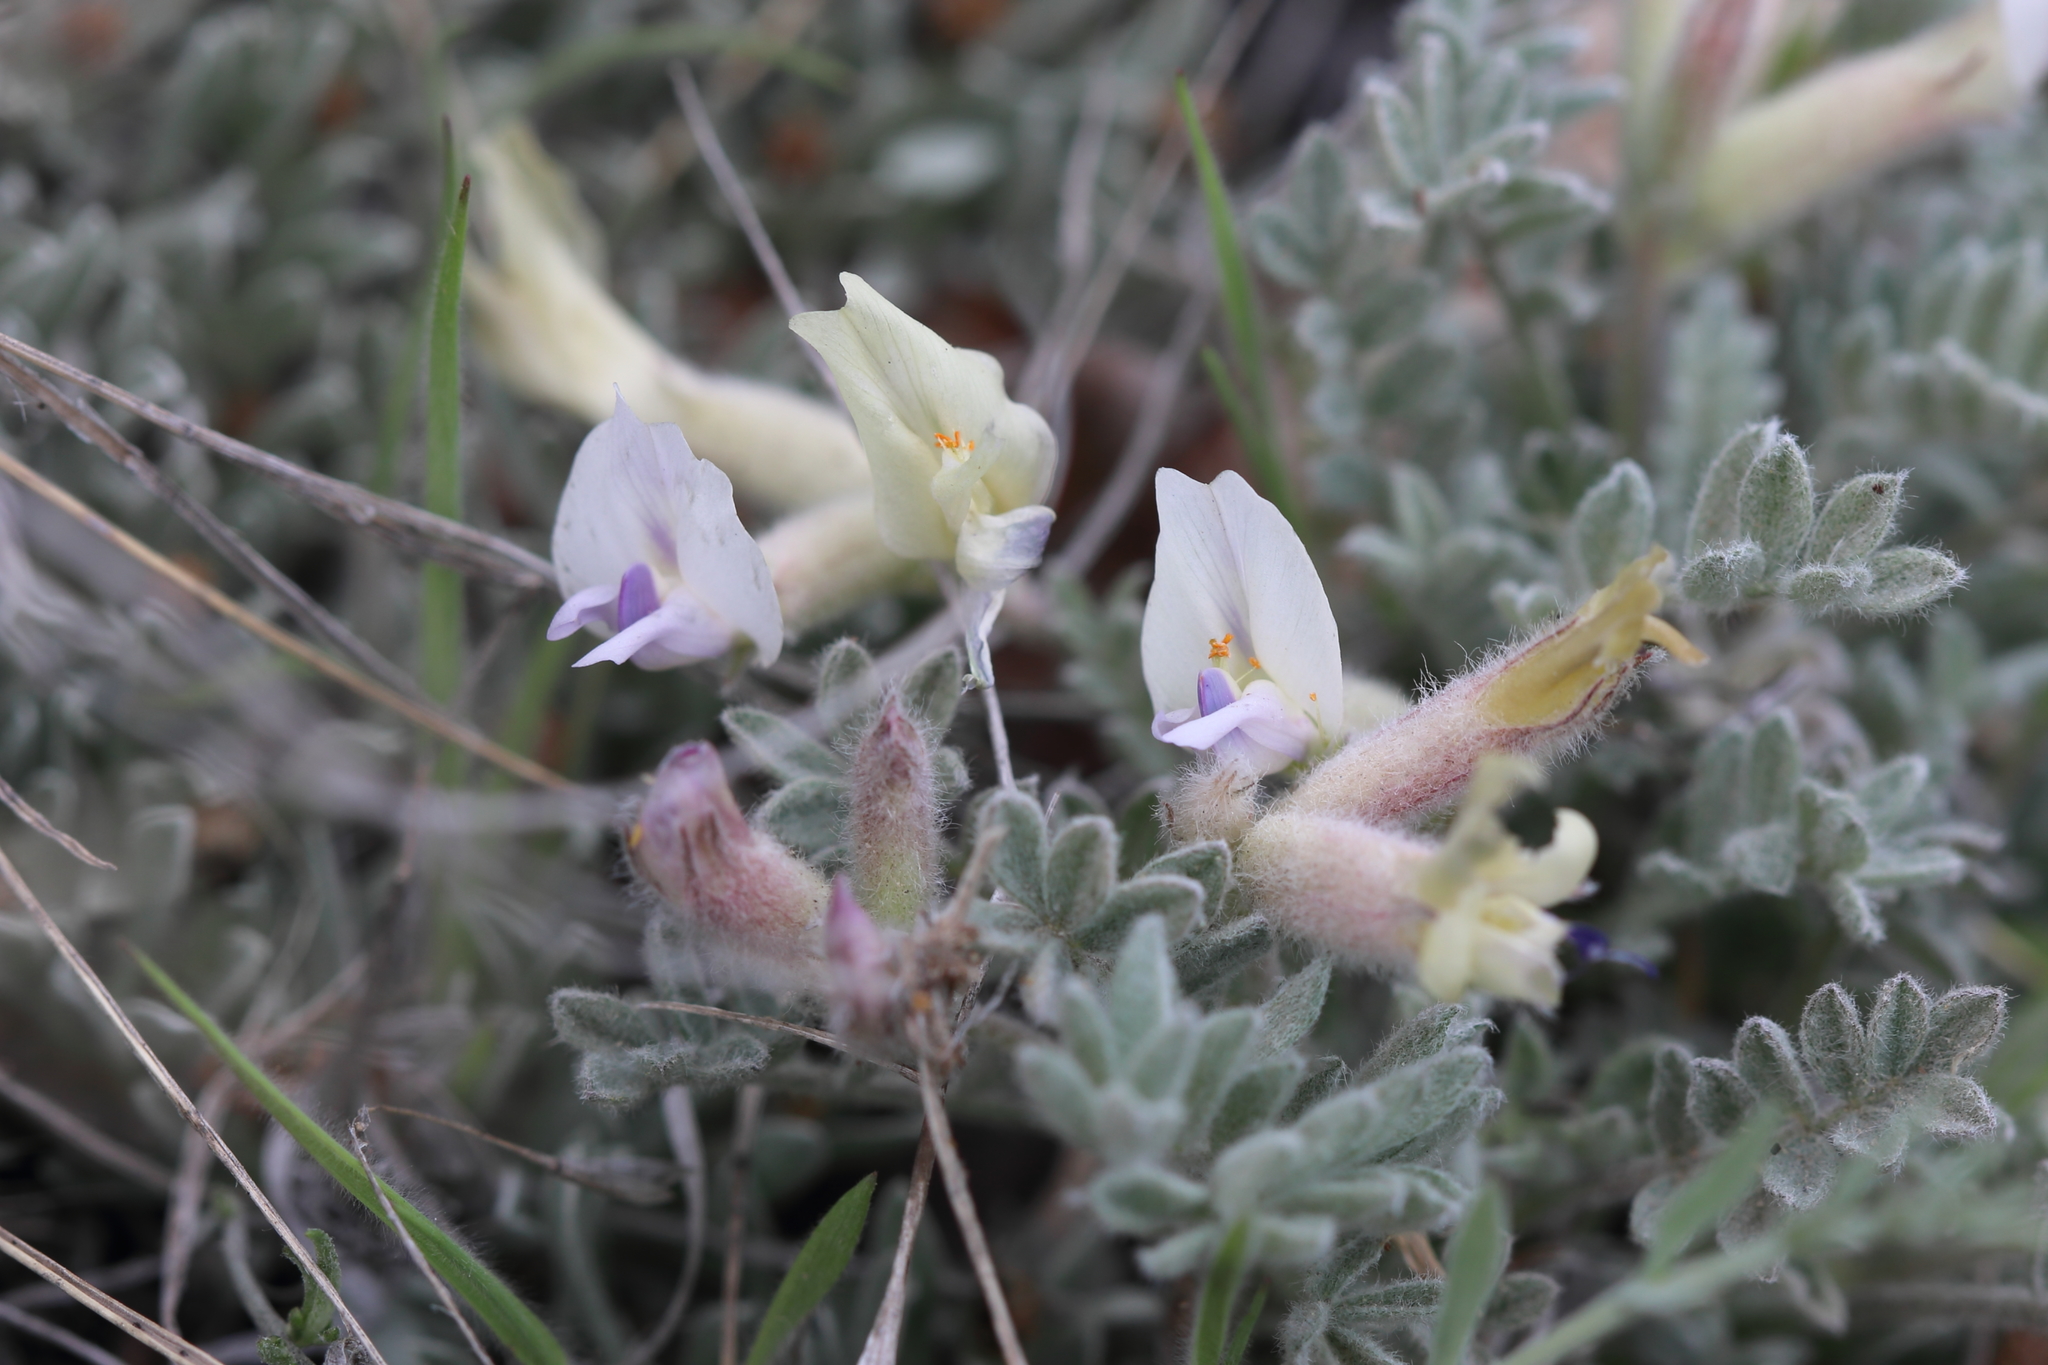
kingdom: Plantae
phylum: Tracheophyta
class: Magnoliopsida
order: Fabales
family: Fabaceae
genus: Astragalus
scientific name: Astragalus purshii
